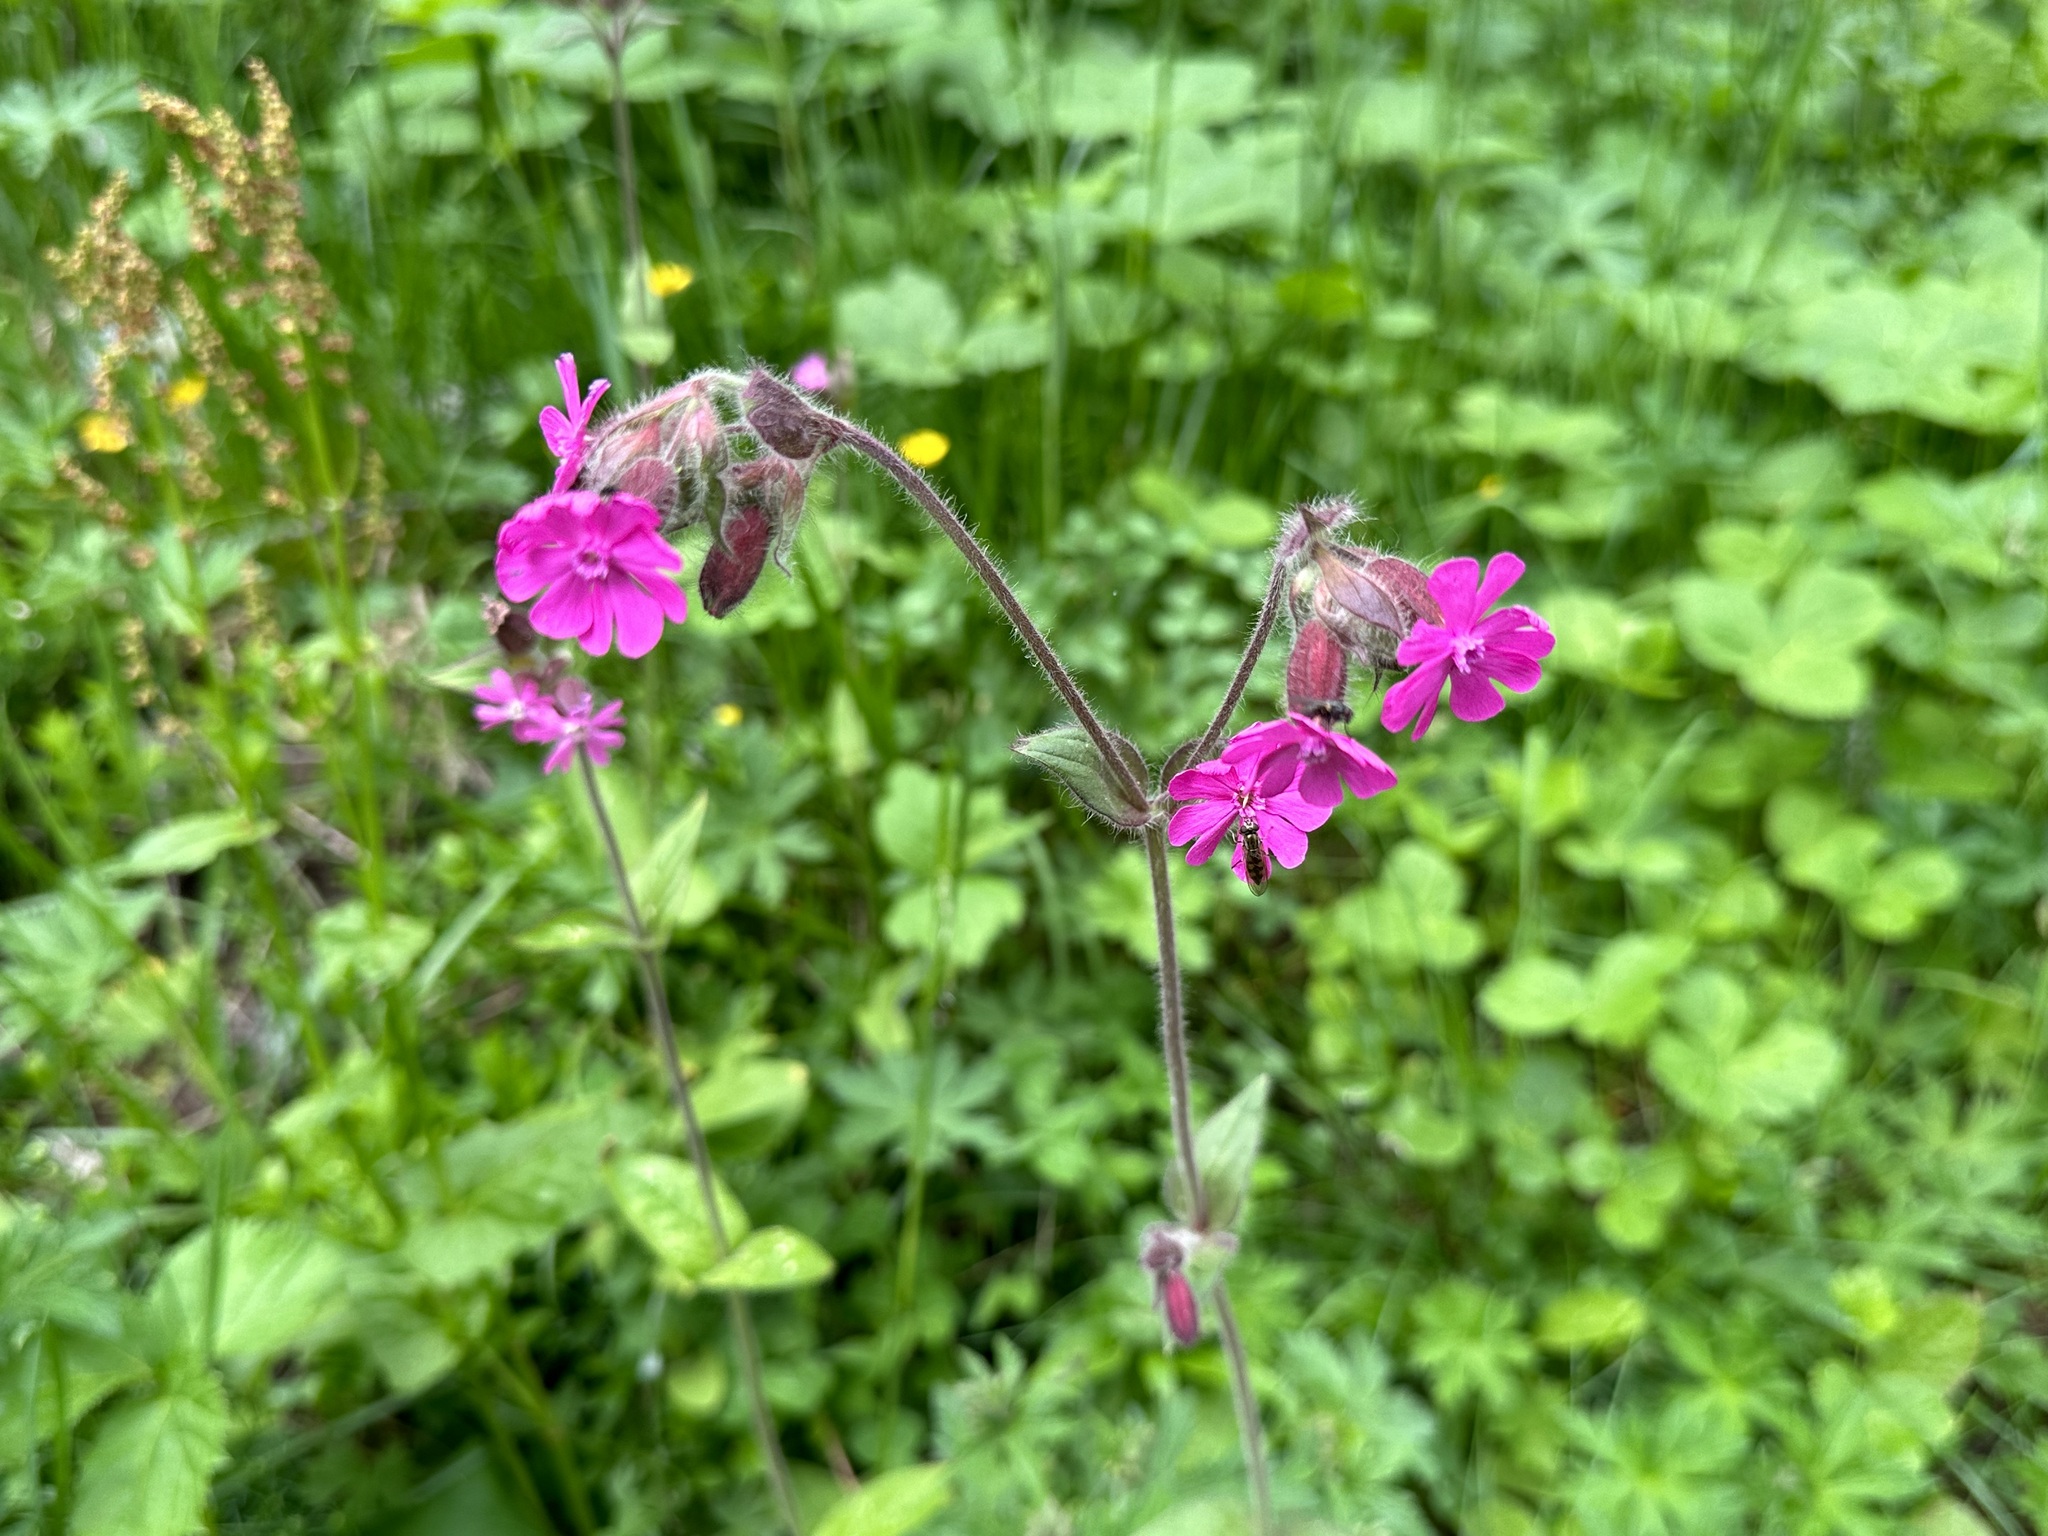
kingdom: Plantae
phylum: Tracheophyta
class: Magnoliopsida
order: Caryophyllales
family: Caryophyllaceae
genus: Silene
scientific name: Silene dioica
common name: Red campion
